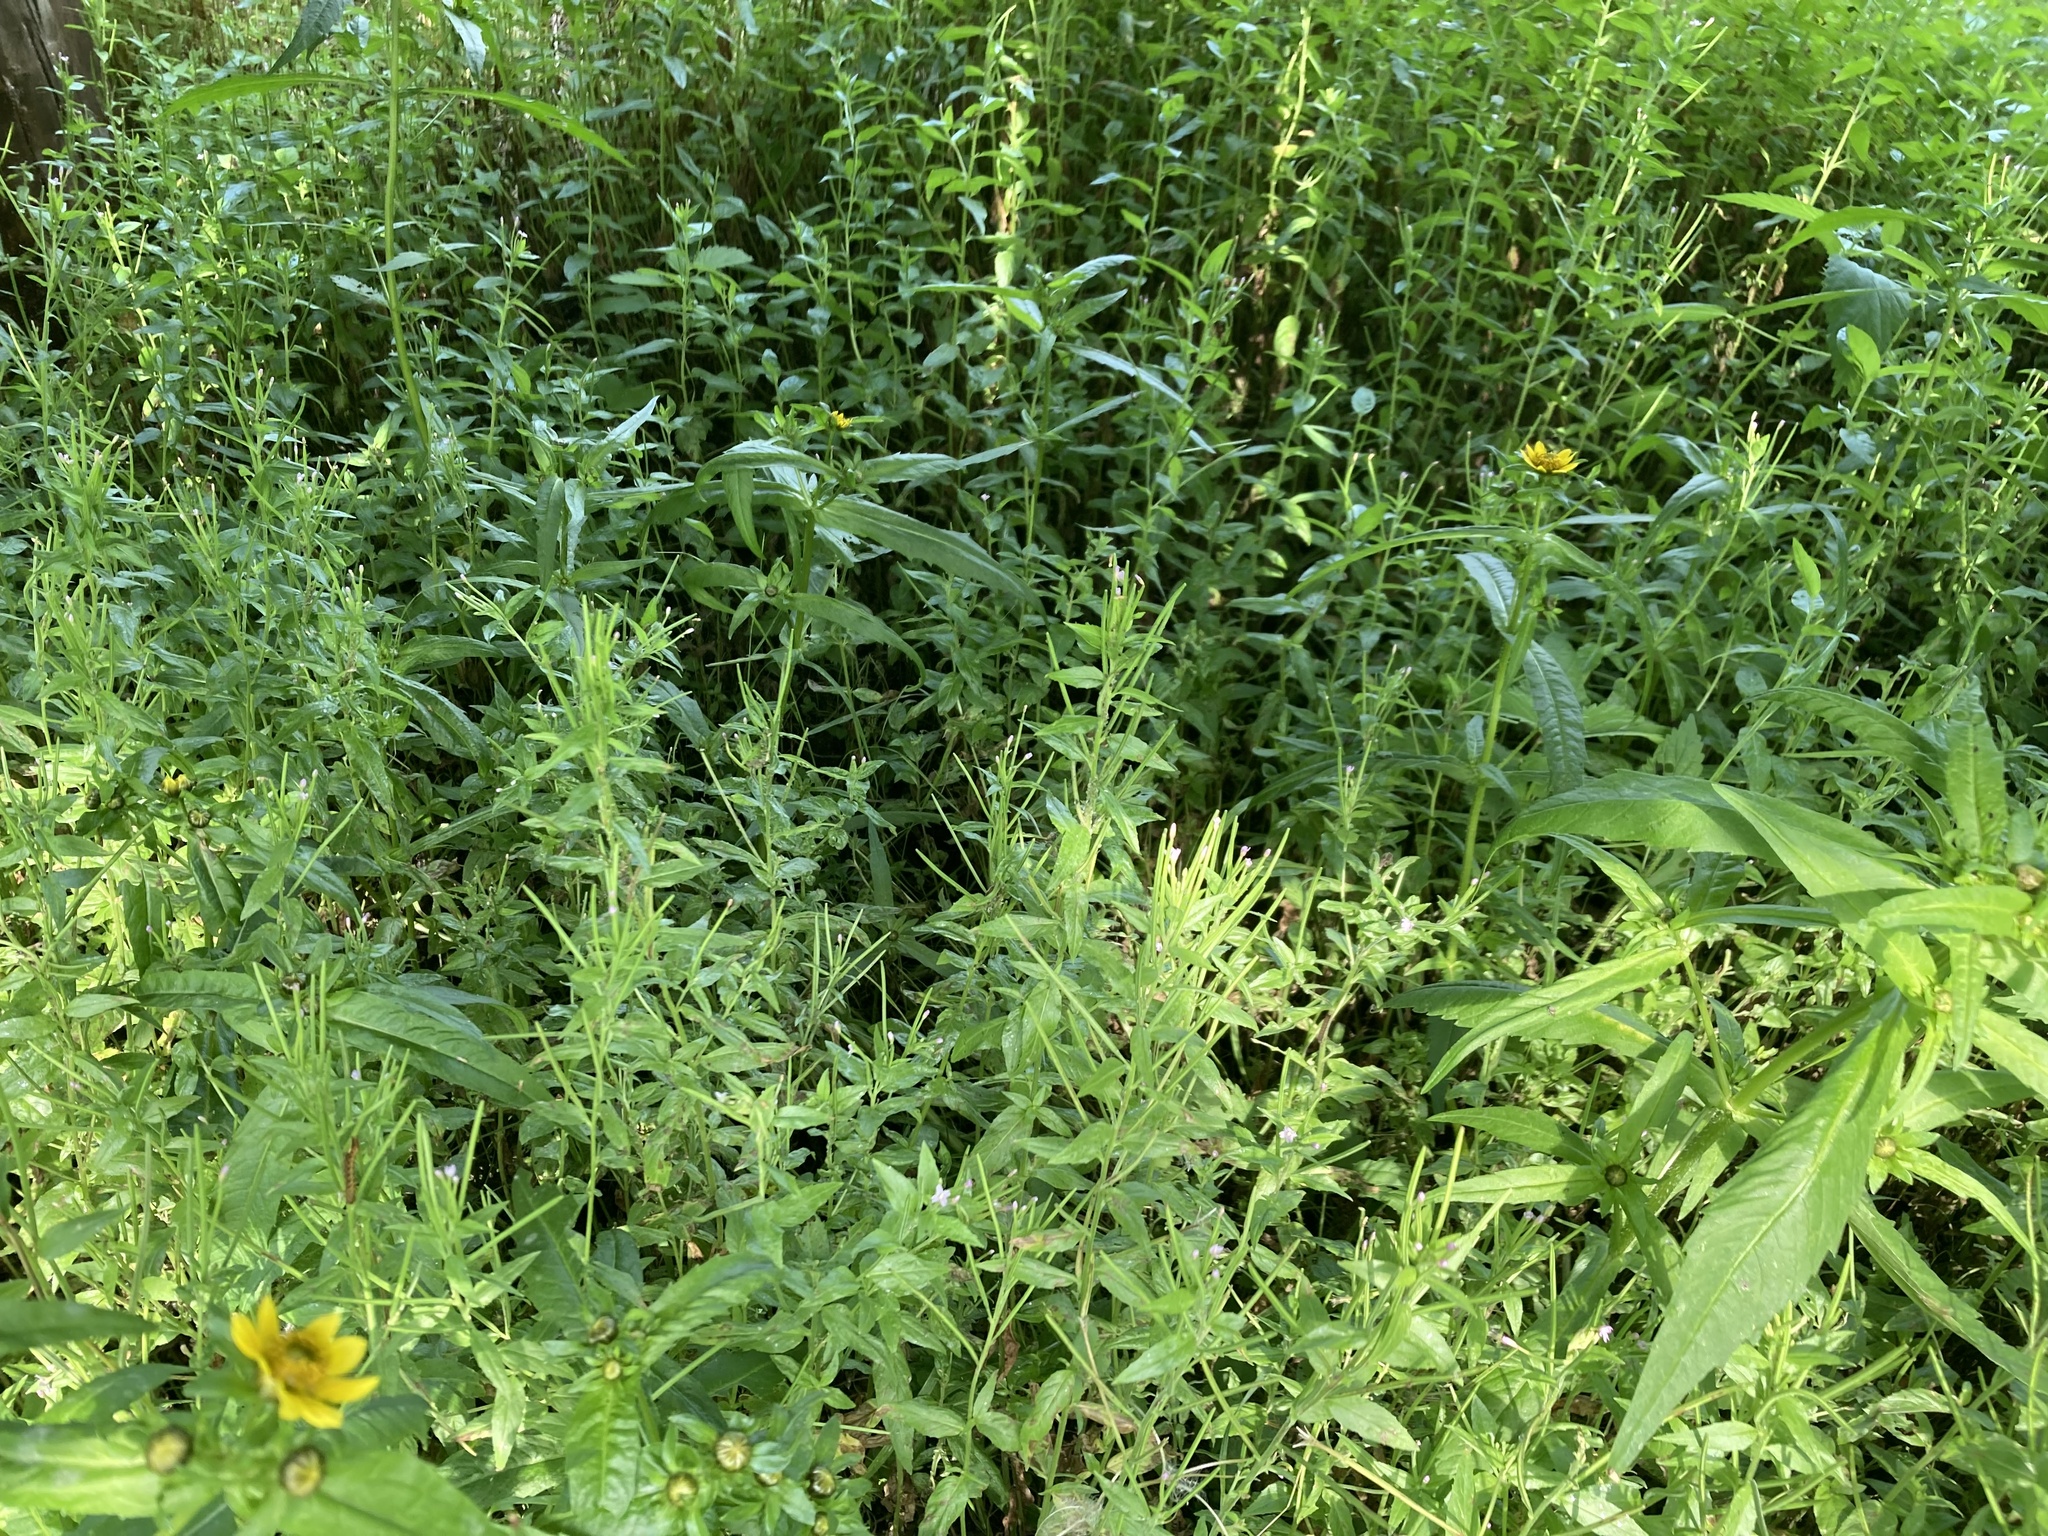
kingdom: Plantae
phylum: Tracheophyta
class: Magnoliopsida
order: Myrtales
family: Onagraceae
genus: Epilobium
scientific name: Epilobium ciliatum
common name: American willowherb
